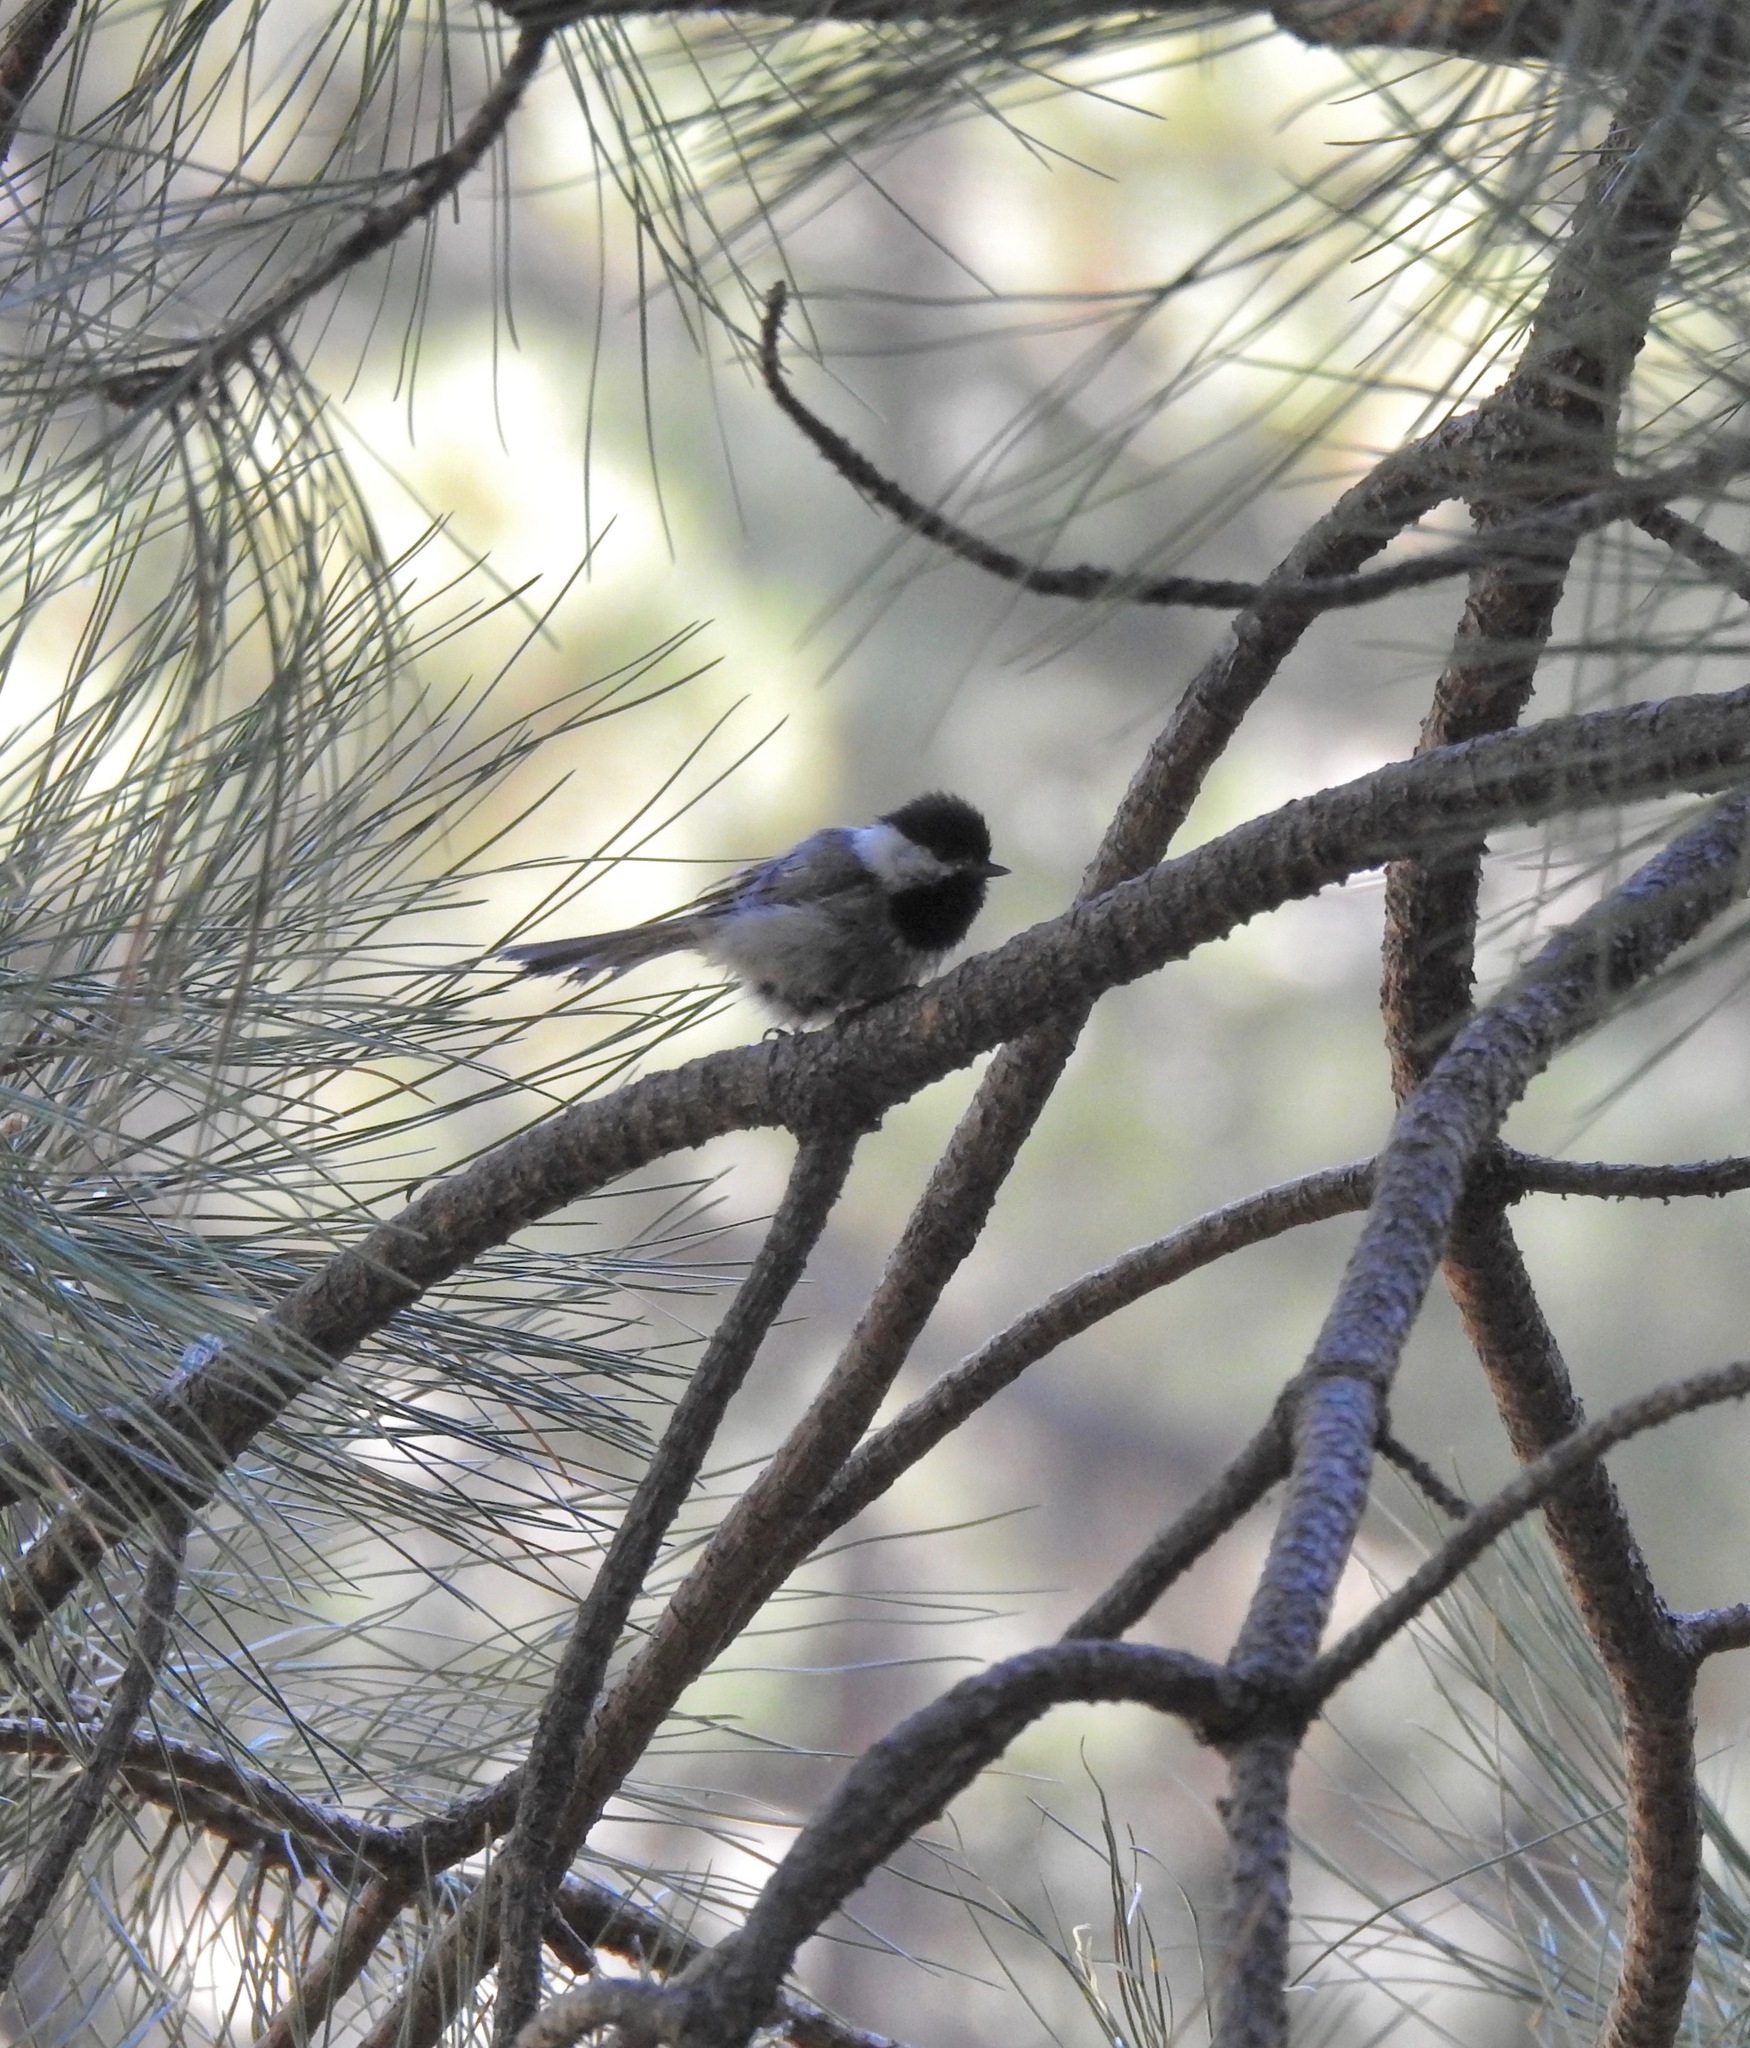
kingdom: Animalia
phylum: Chordata
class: Aves
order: Passeriformes
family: Paridae
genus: Poecile
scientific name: Poecile sclateri
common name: Mexican chickadee
